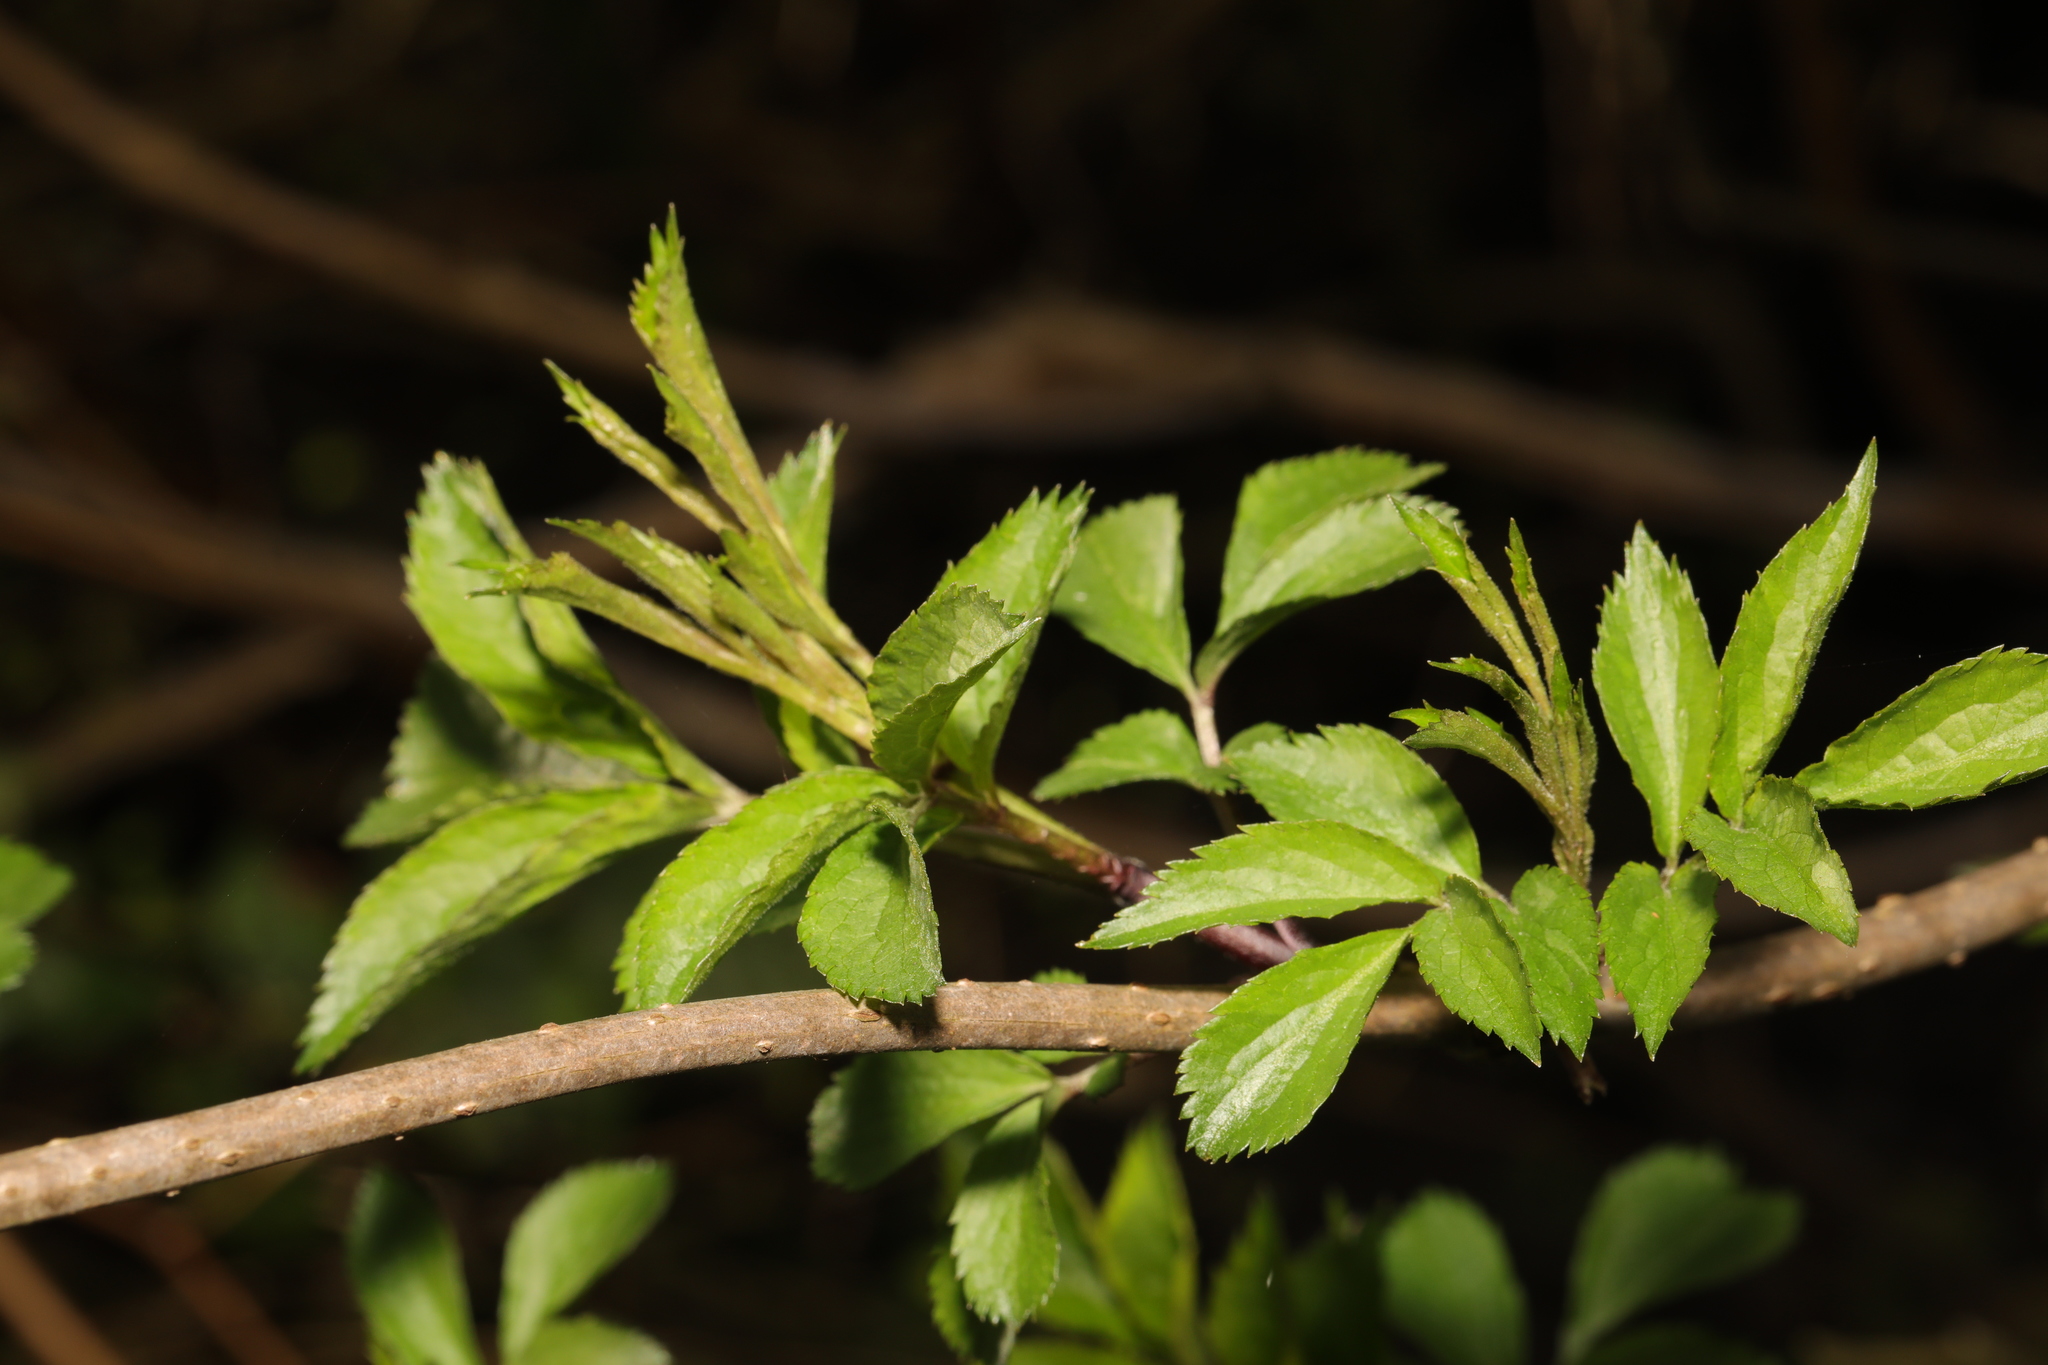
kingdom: Plantae
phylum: Tracheophyta
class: Magnoliopsida
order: Dipsacales
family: Viburnaceae
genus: Sambucus
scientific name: Sambucus nigra
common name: Elder
